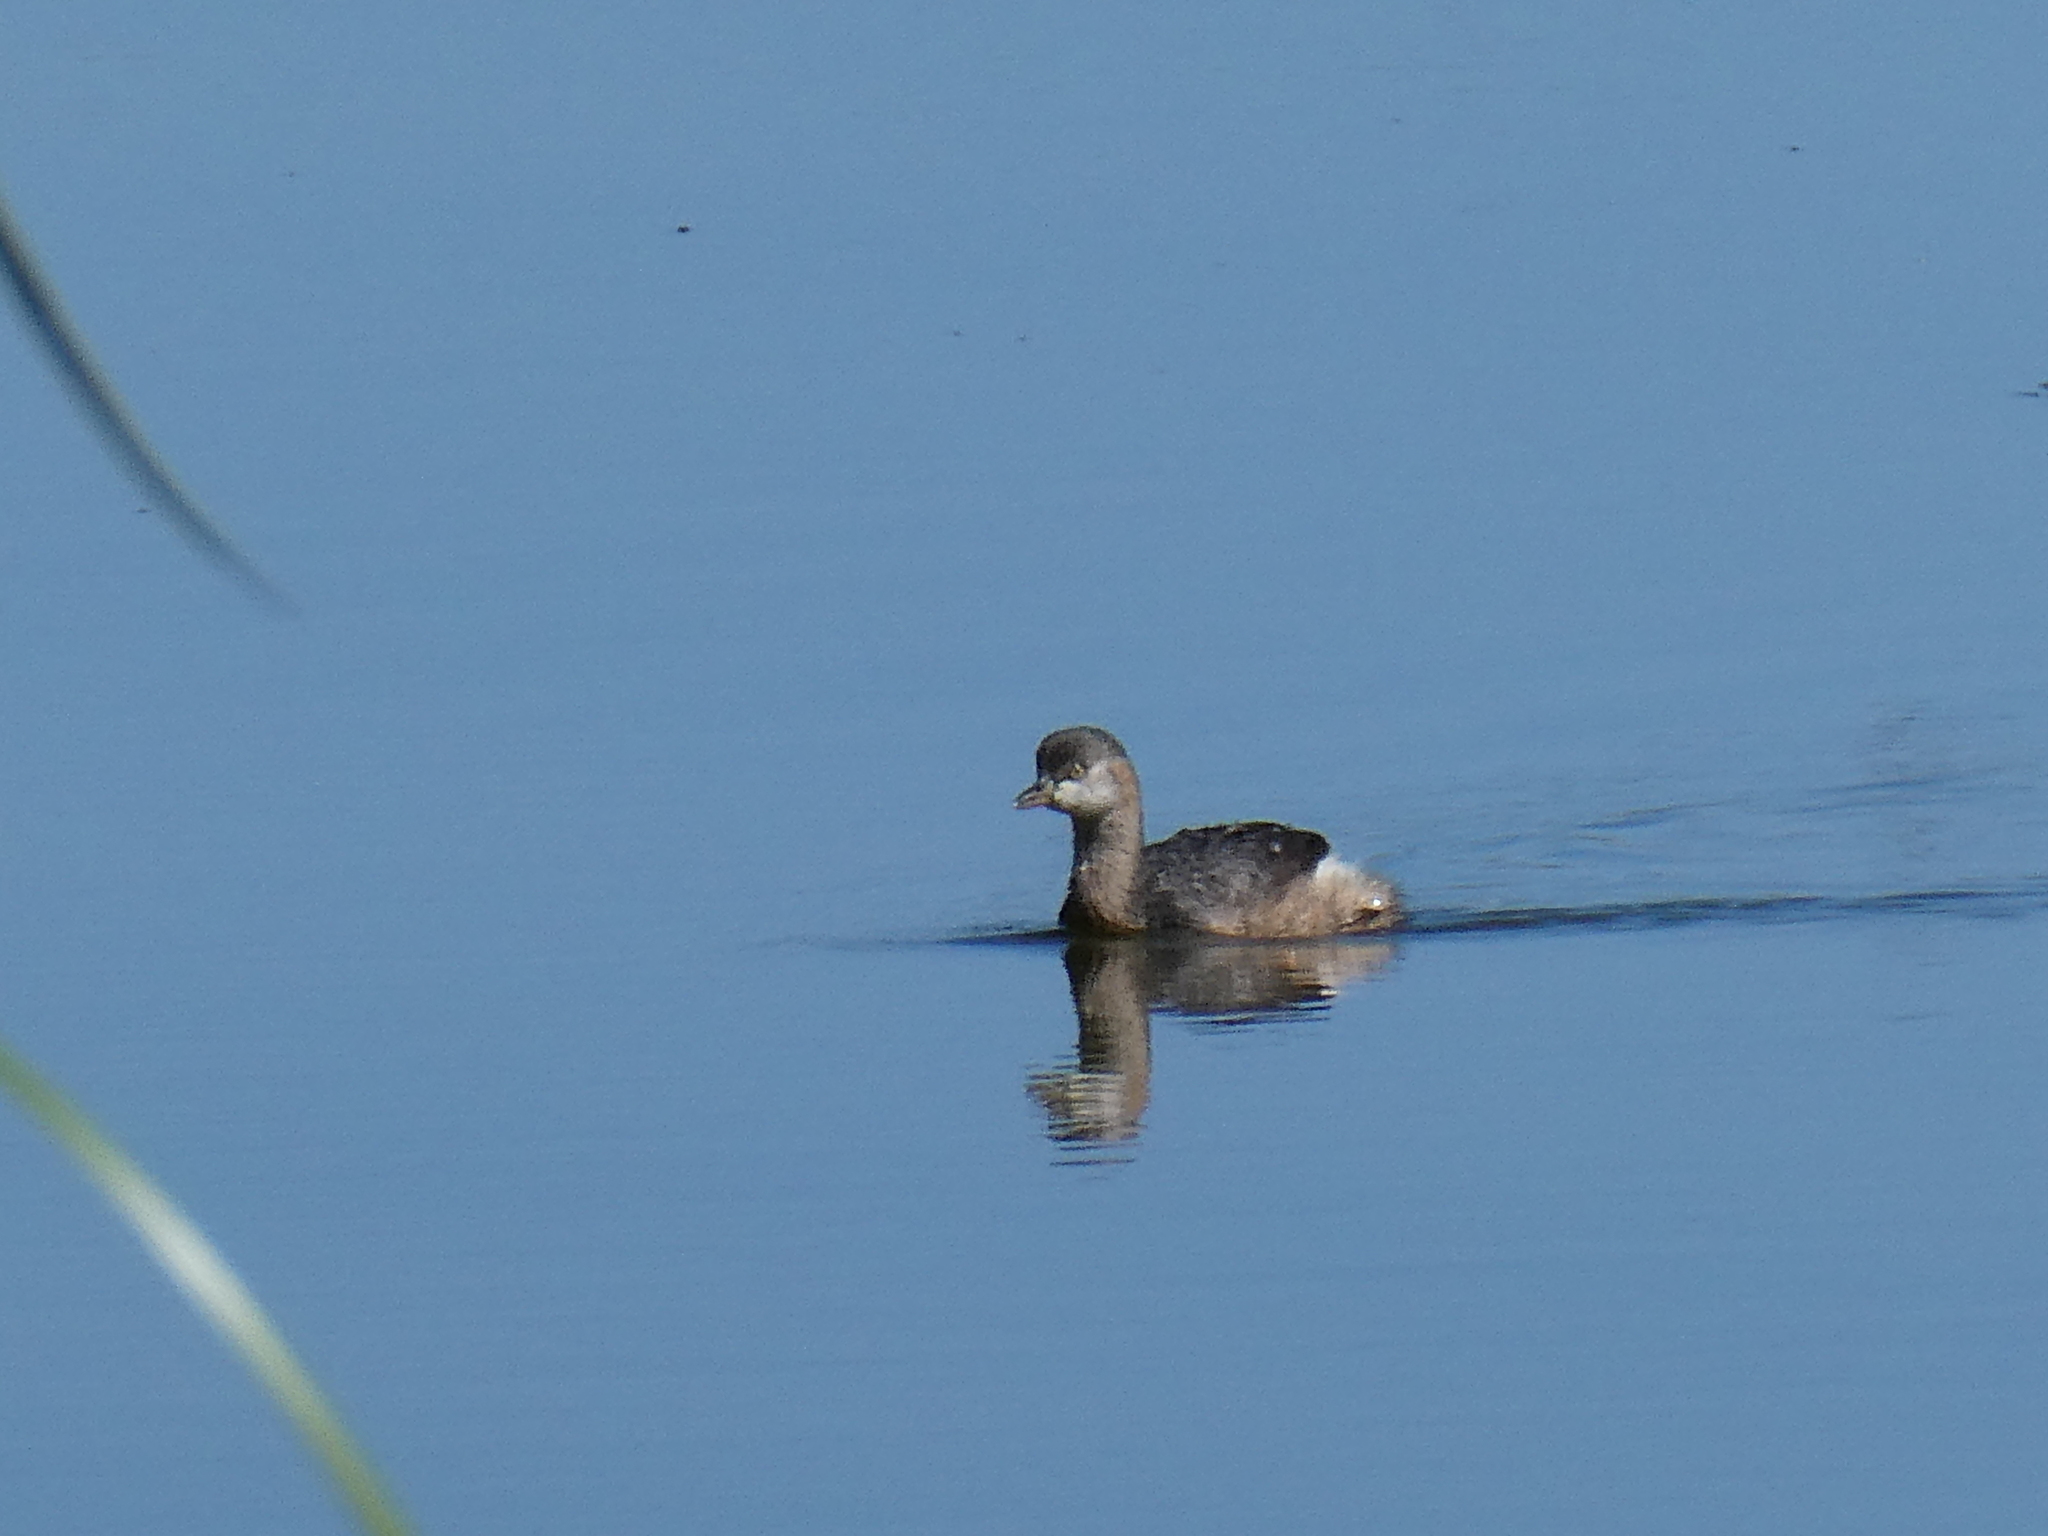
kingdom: Animalia
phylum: Chordata
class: Aves
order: Podicipediformes
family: Podicipedidae
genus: Tachybaptus
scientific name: Tachybaptus novaehollandiae
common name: Australasian grebe
